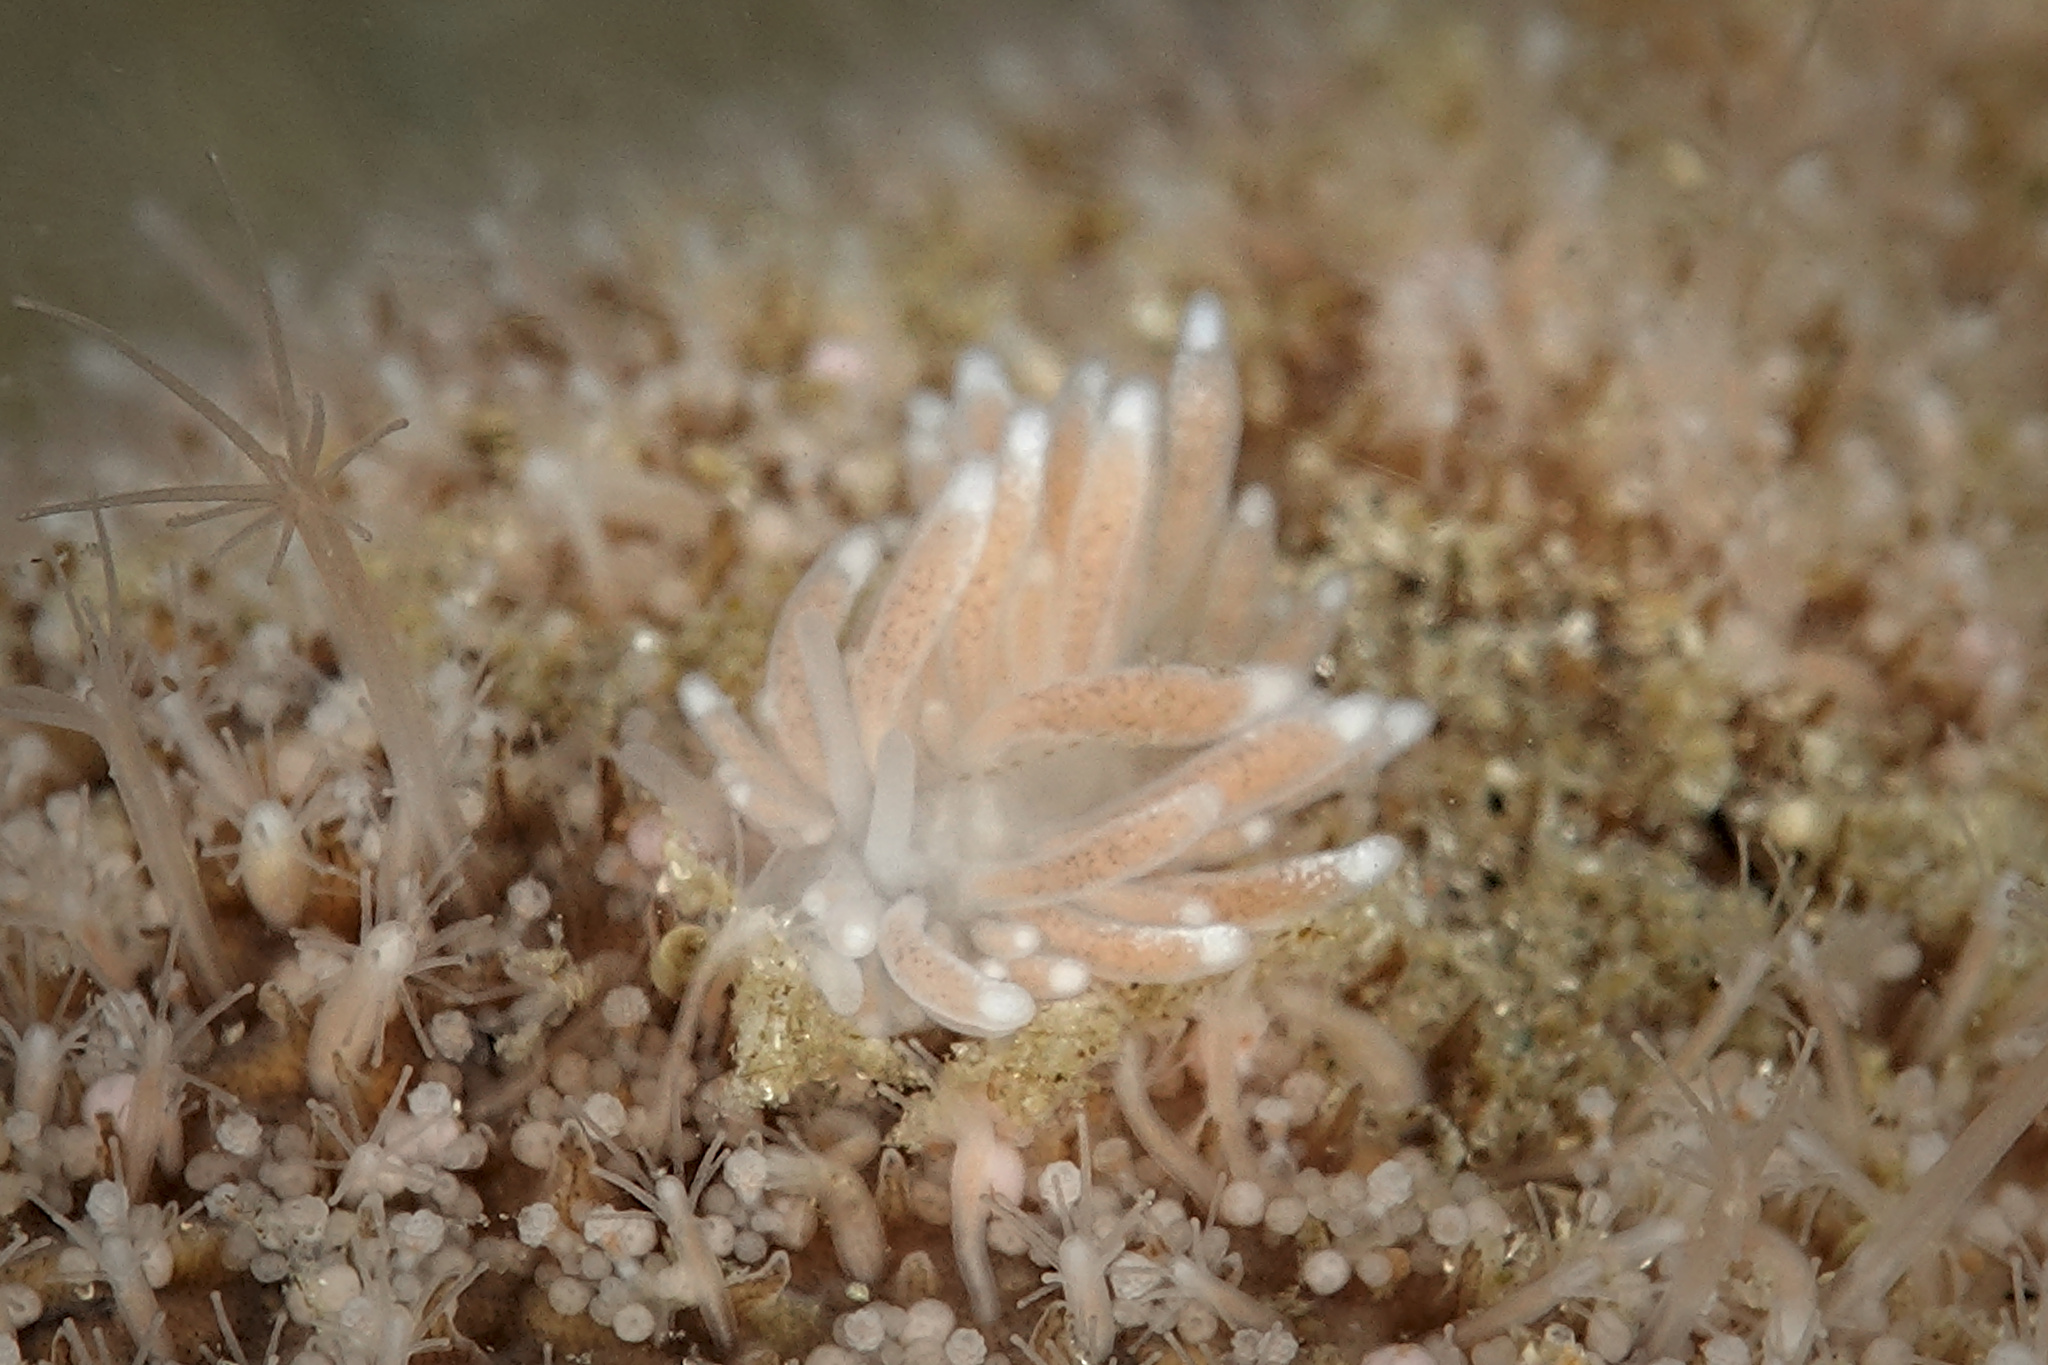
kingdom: Animalia
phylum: Mollusca
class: Gastropoda
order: Nudibranchia
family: Cuthonidae
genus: Cuthona
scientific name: Cuthona nana
